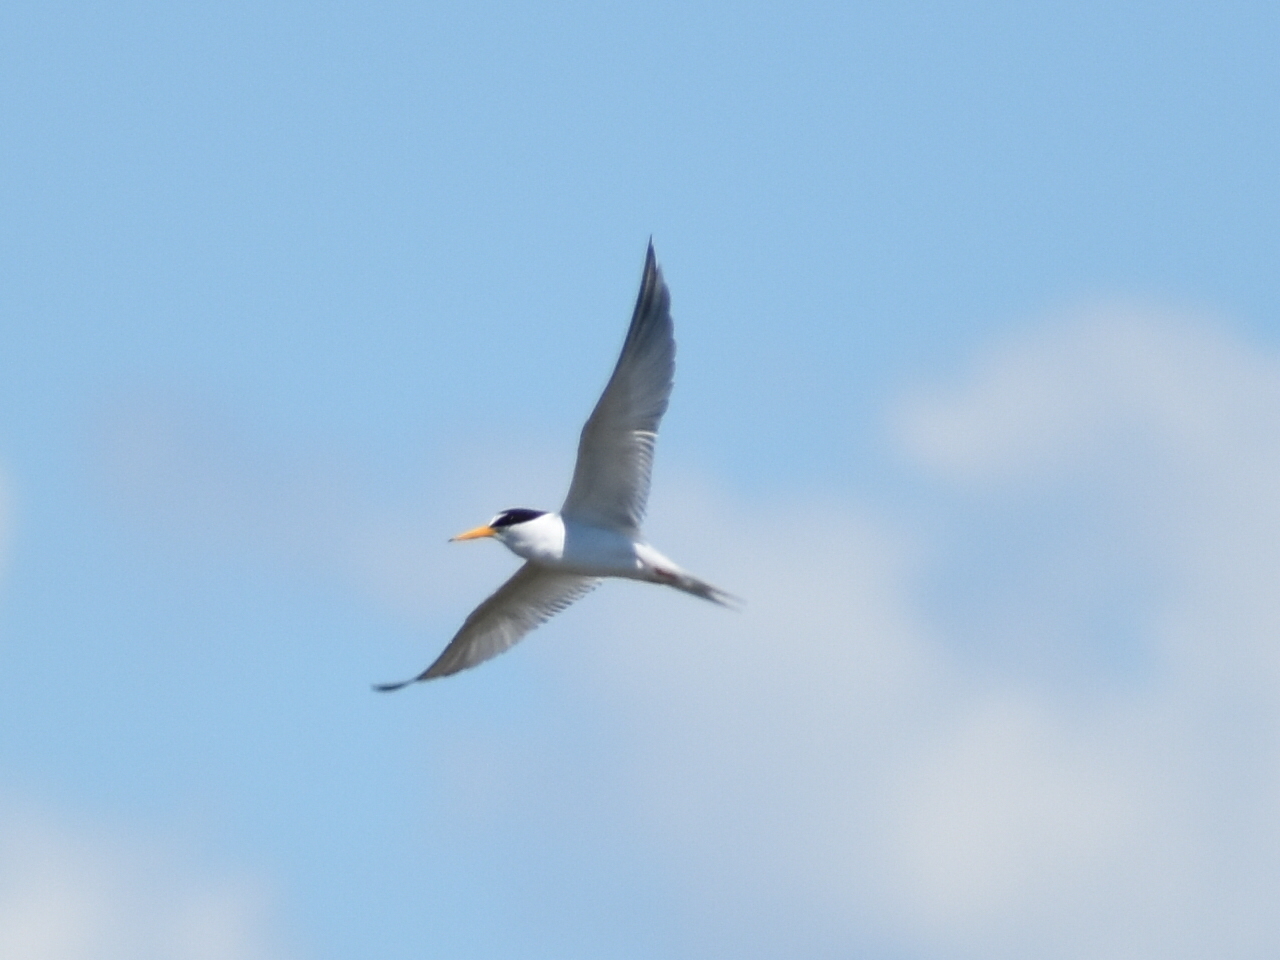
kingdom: Animalia
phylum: Chordata
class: Aves
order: Charadriiformes
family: Laridae
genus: Sternula
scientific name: Sternula antillarum
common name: Least tern
